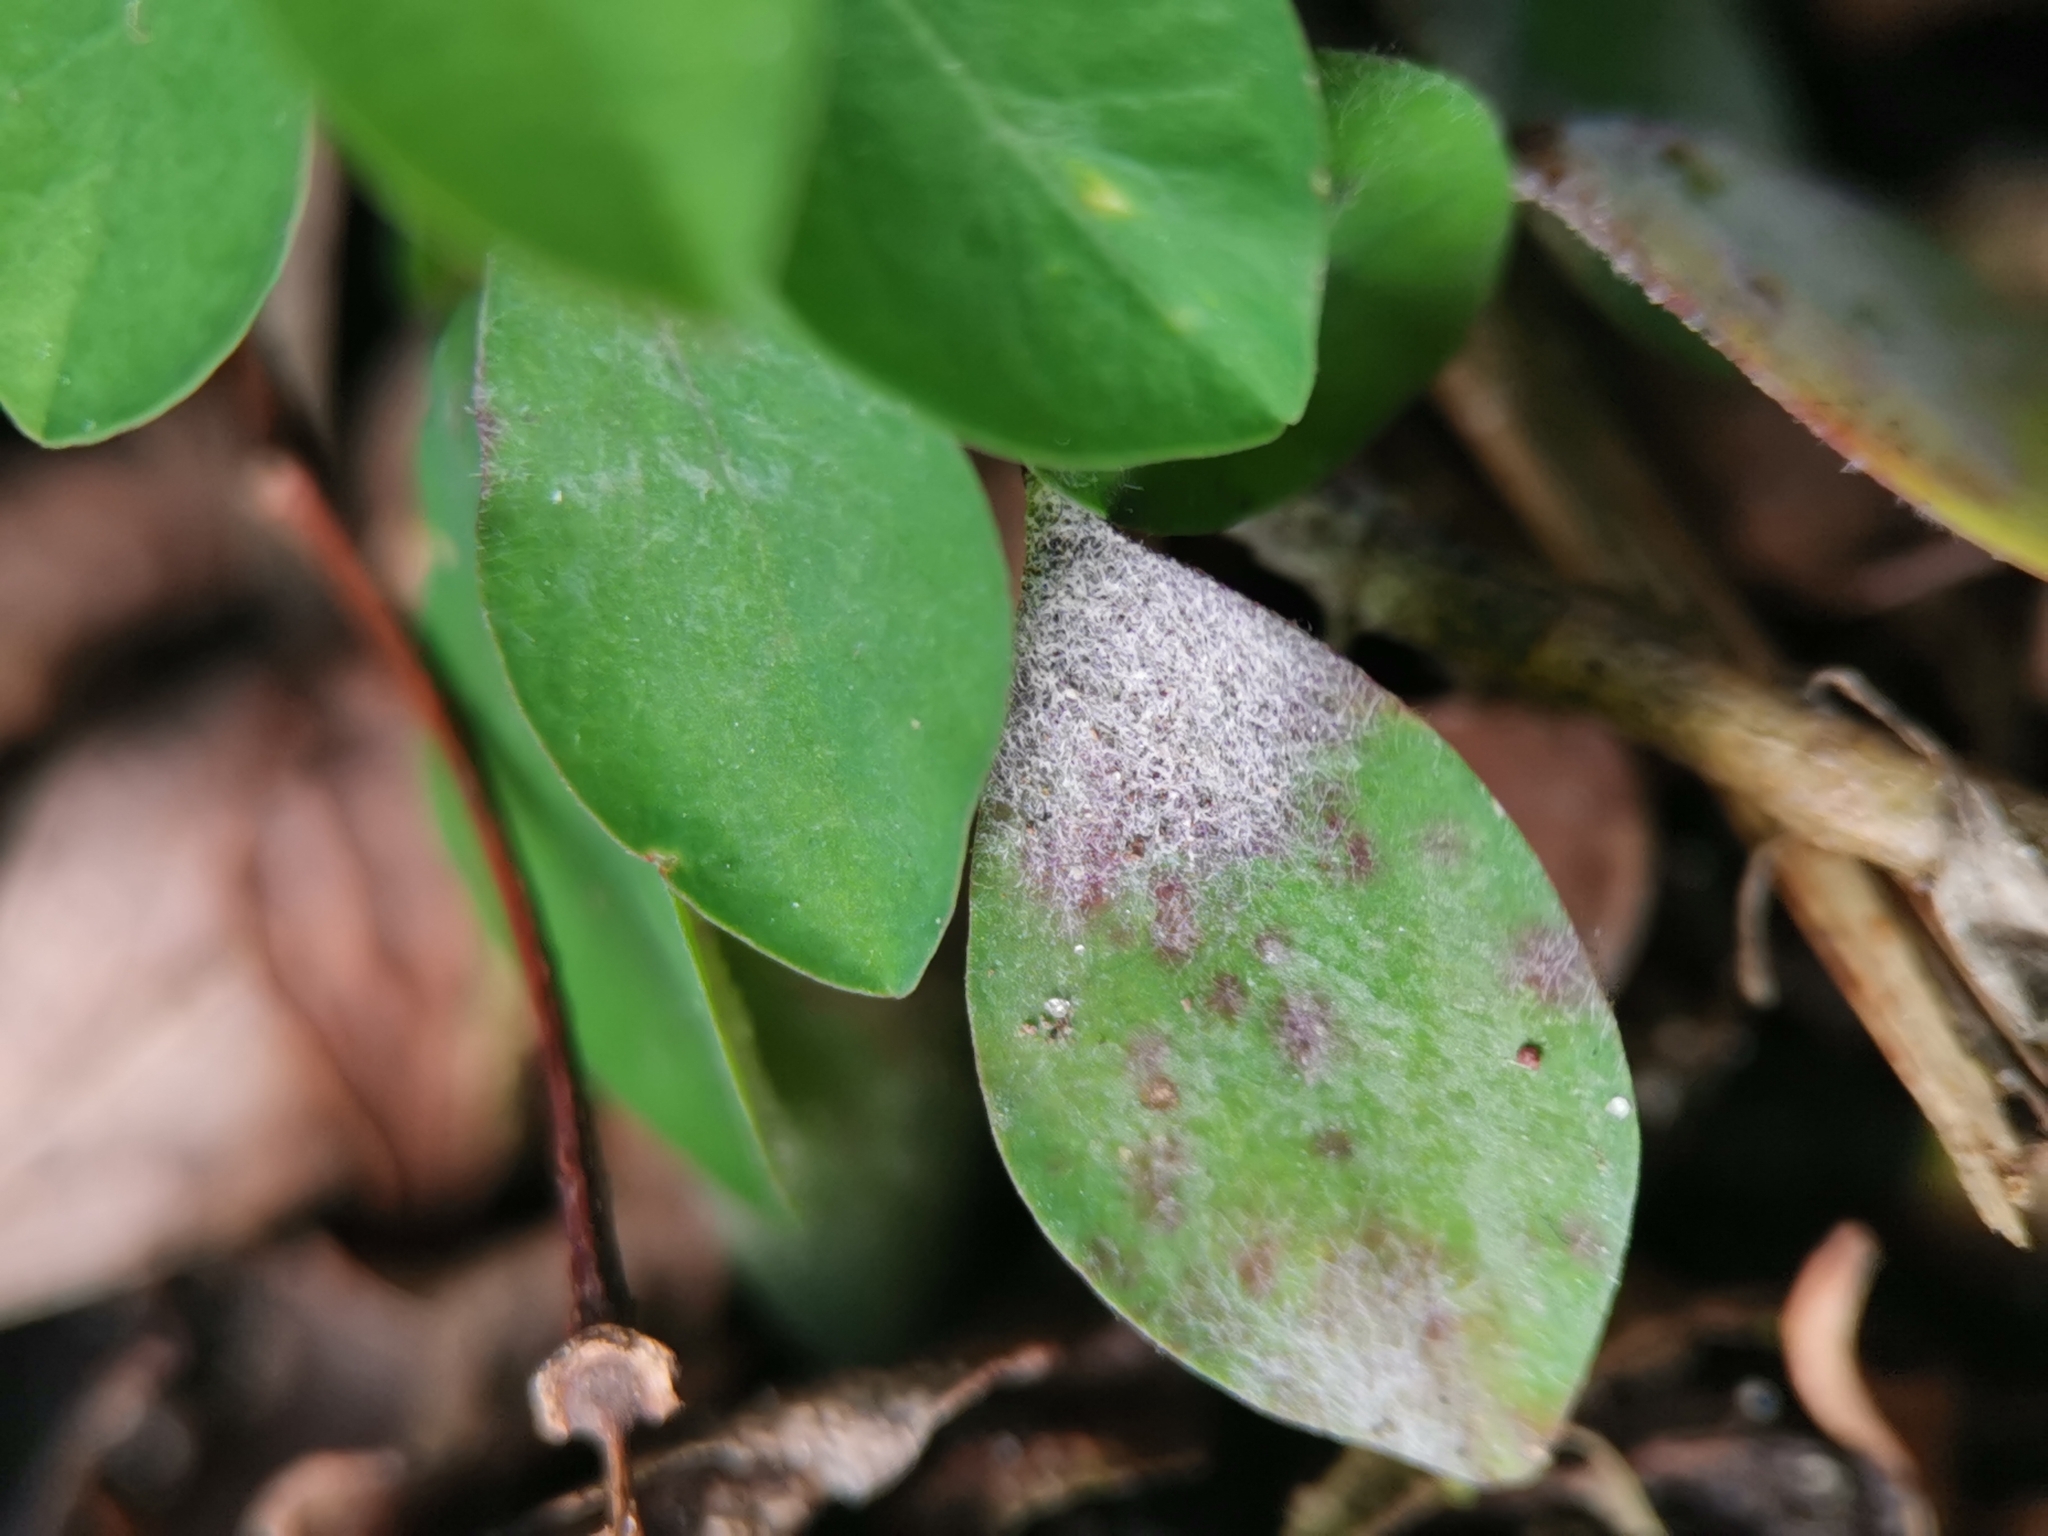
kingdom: Fungi
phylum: Ascomycota
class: Leotiomycetes
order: Helotiales
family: Erysiphaceae
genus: Podosphaera
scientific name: Podosphaera euphorbiae
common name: Eurasian poinsettia powdery mildew
